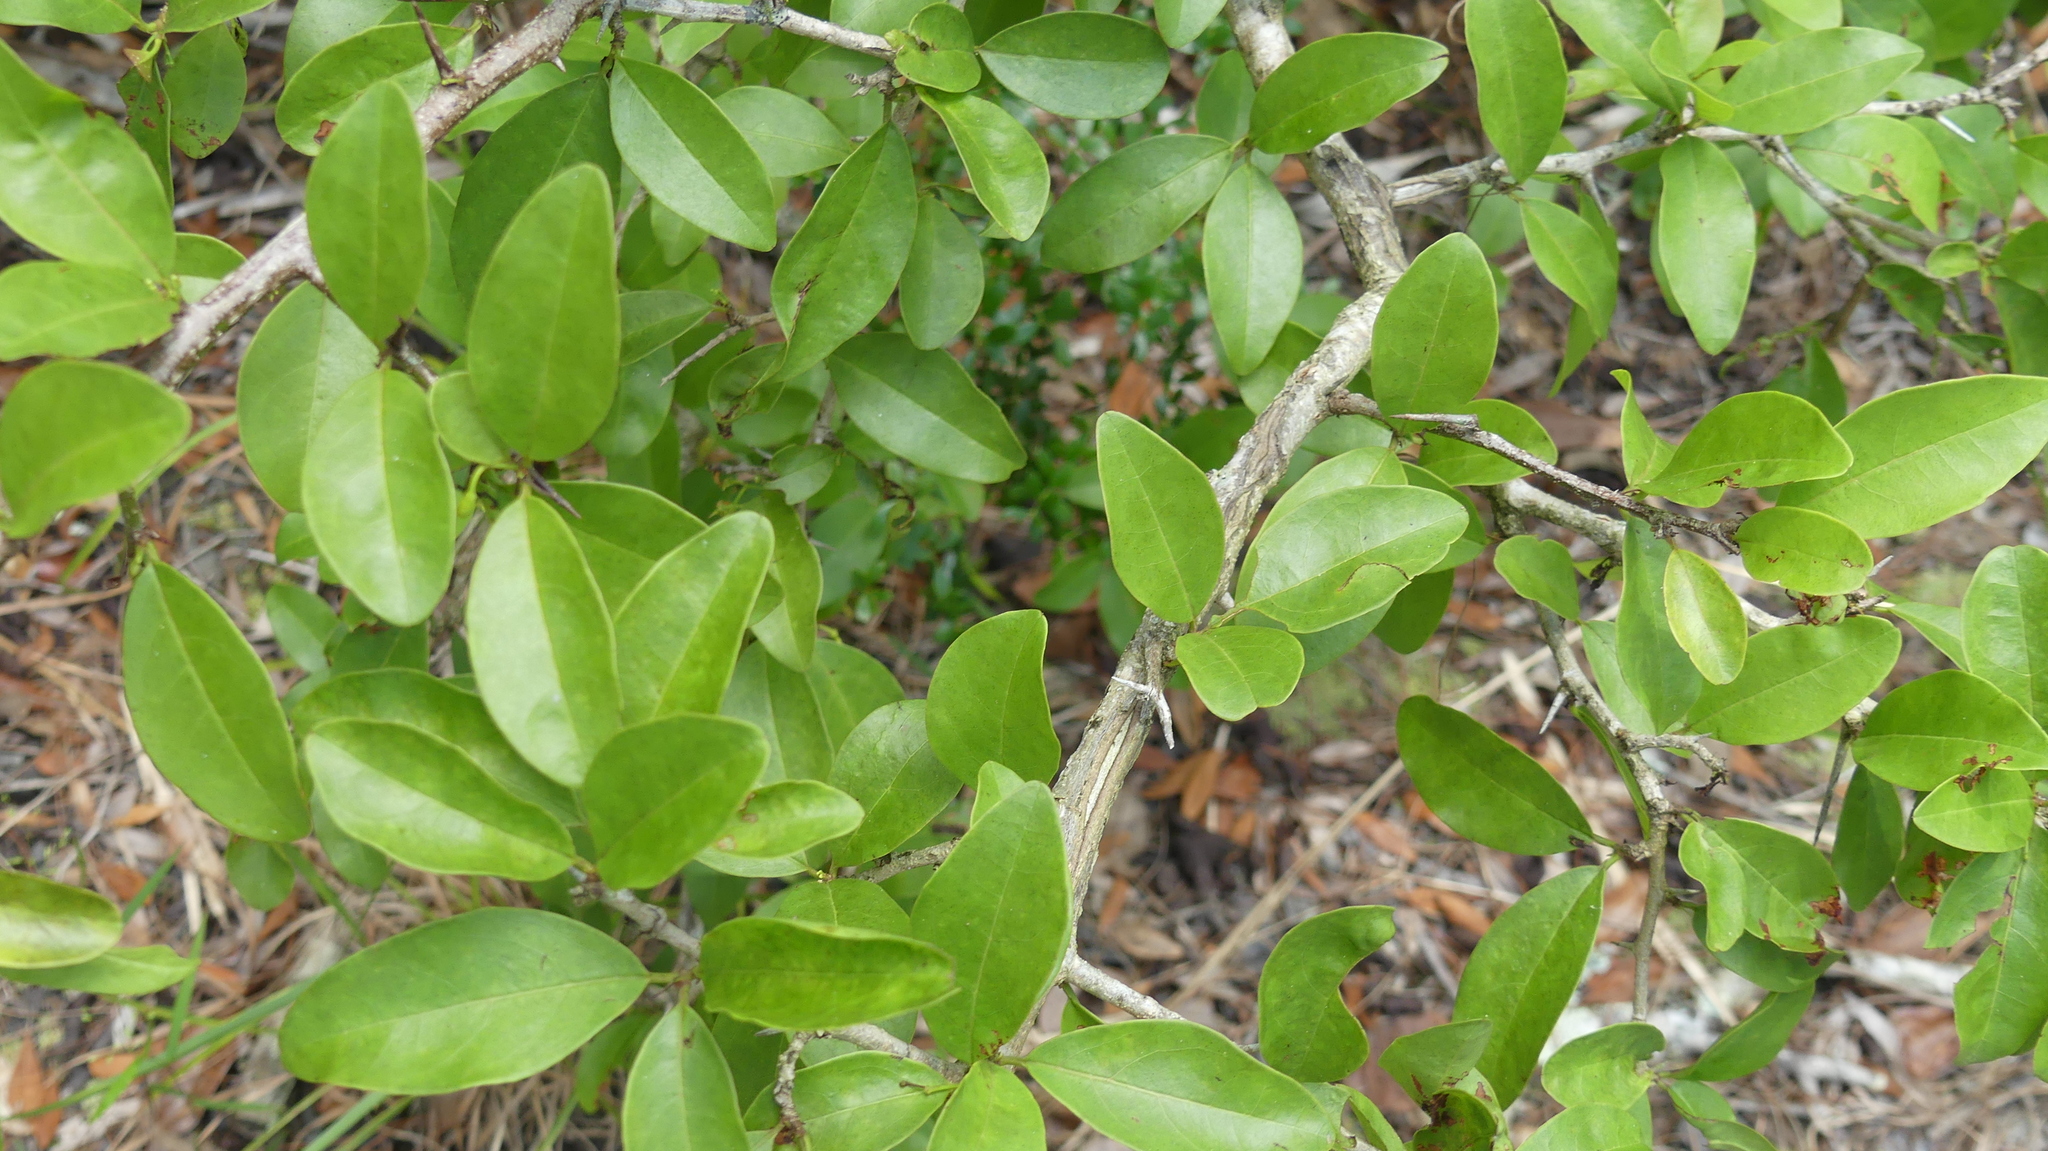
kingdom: Plantae
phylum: Tracheophyta
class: Magnoliopsida
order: Santalales
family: Ximeniaceae
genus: Ximenia
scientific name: Ximenia americana
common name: Tallowwood
